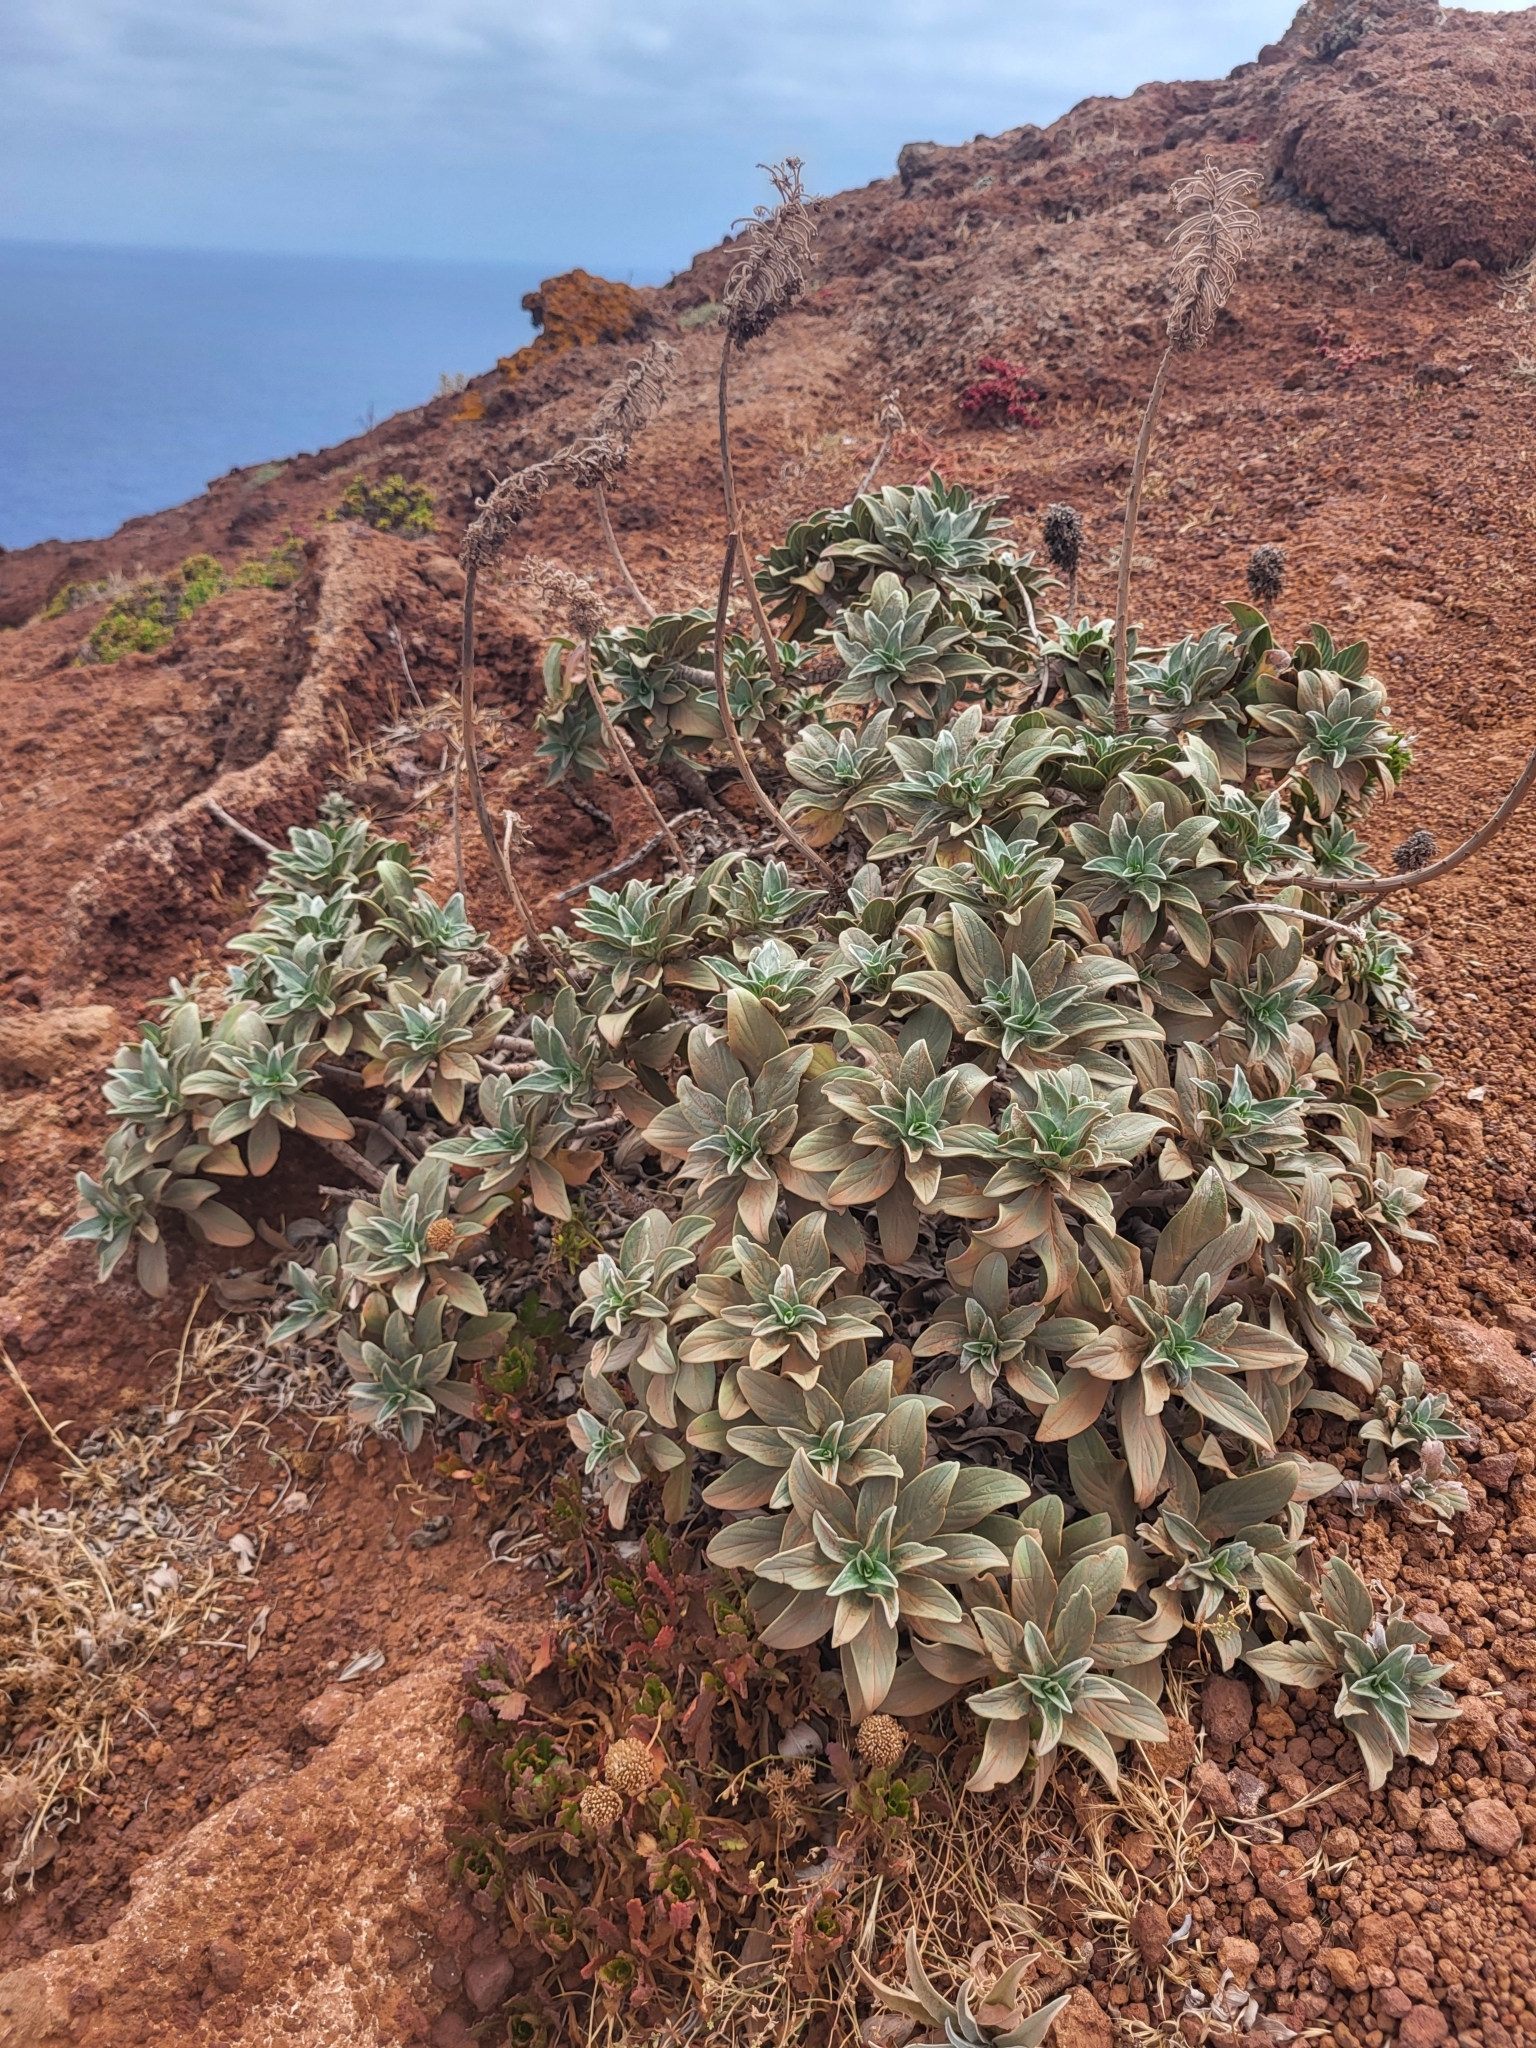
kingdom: Plantae
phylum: Tracheophyta
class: Magnoliopsida
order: Boraginales
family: Boraginaceae
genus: Echium
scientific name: Echium nervosum
